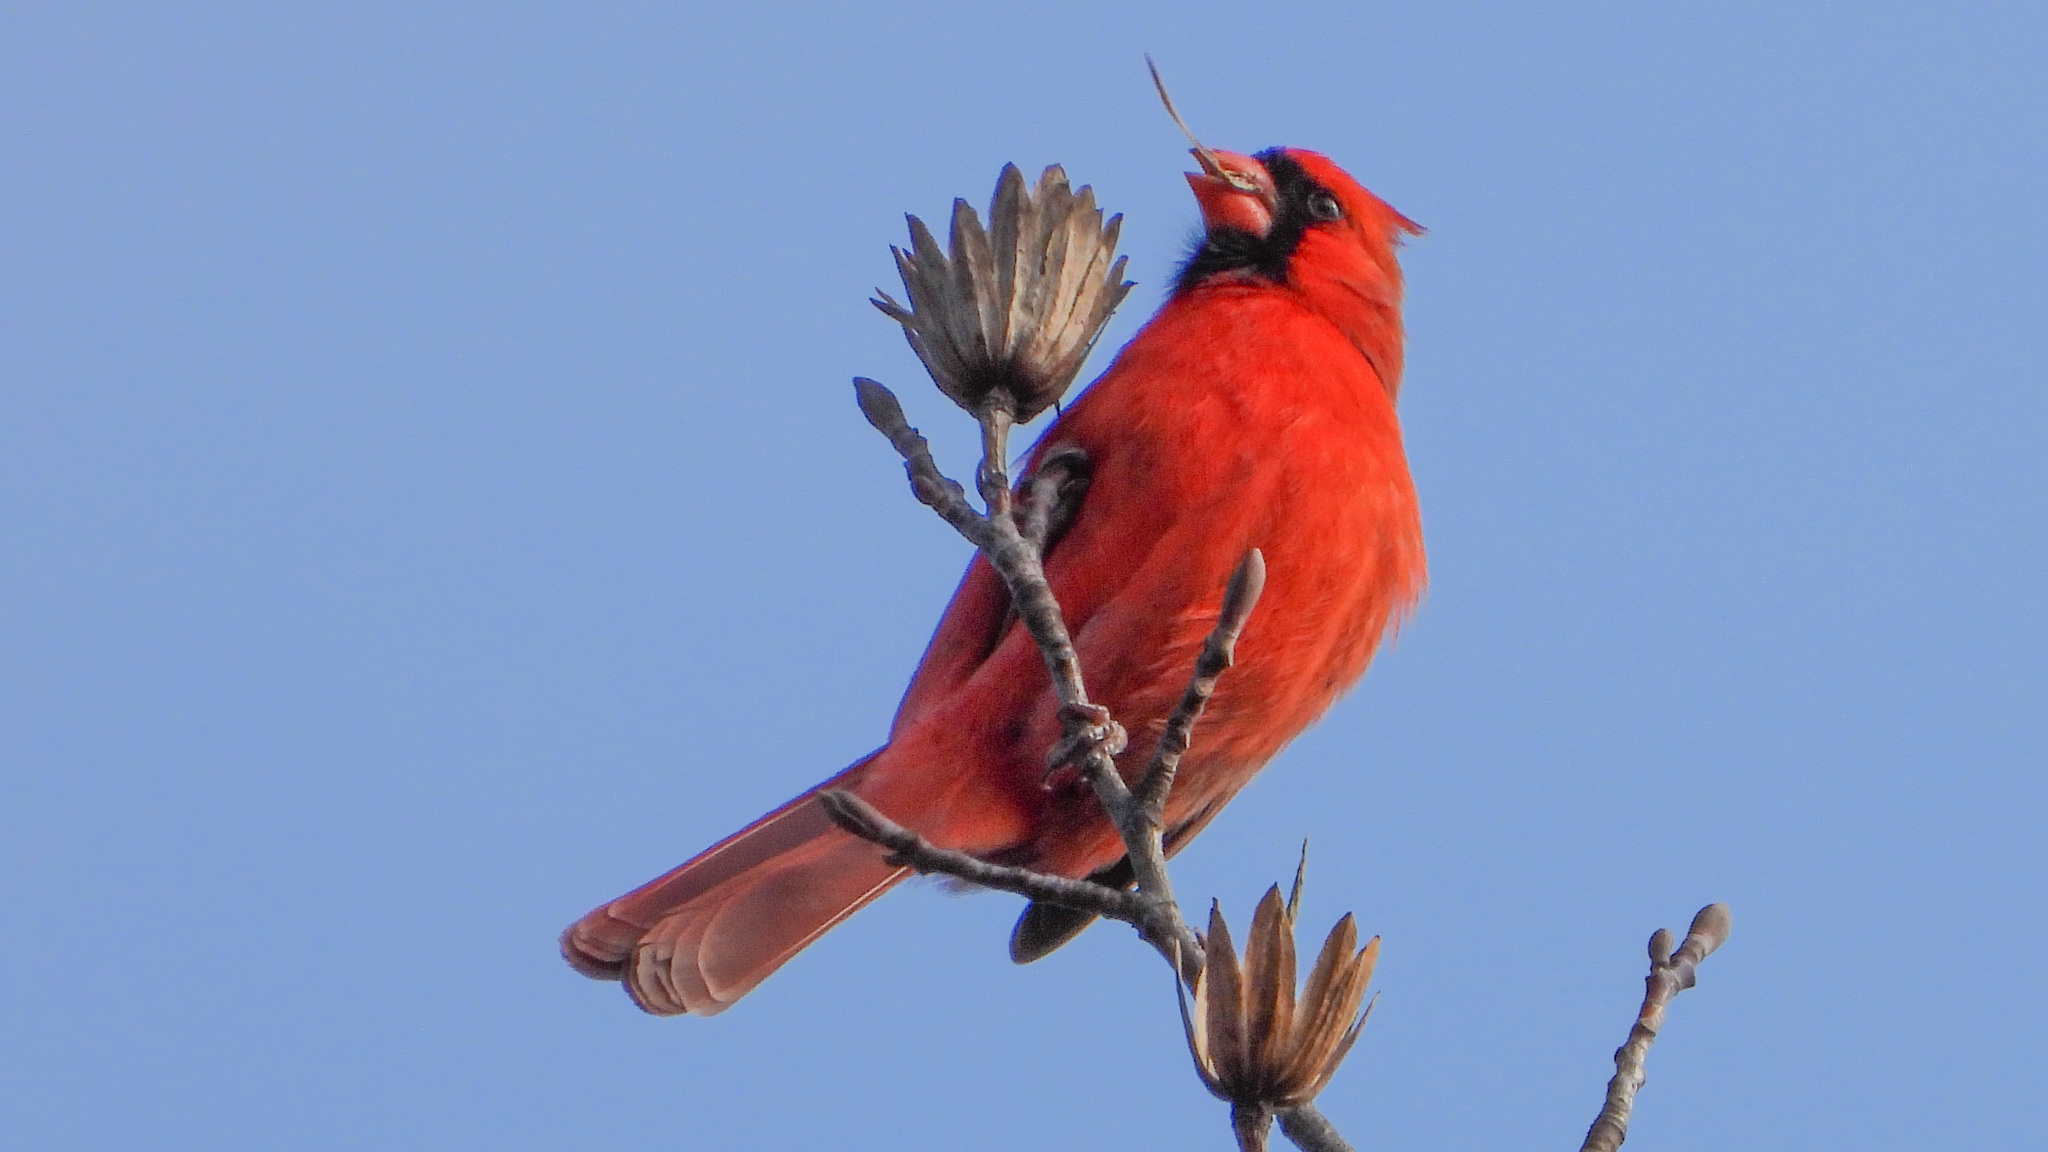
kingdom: Animalia
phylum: Chordata
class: Aves
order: Passeriformes
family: Cardinalidae
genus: Cardinalis
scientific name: Cardinalis cardinalis
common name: Northern cardinal
